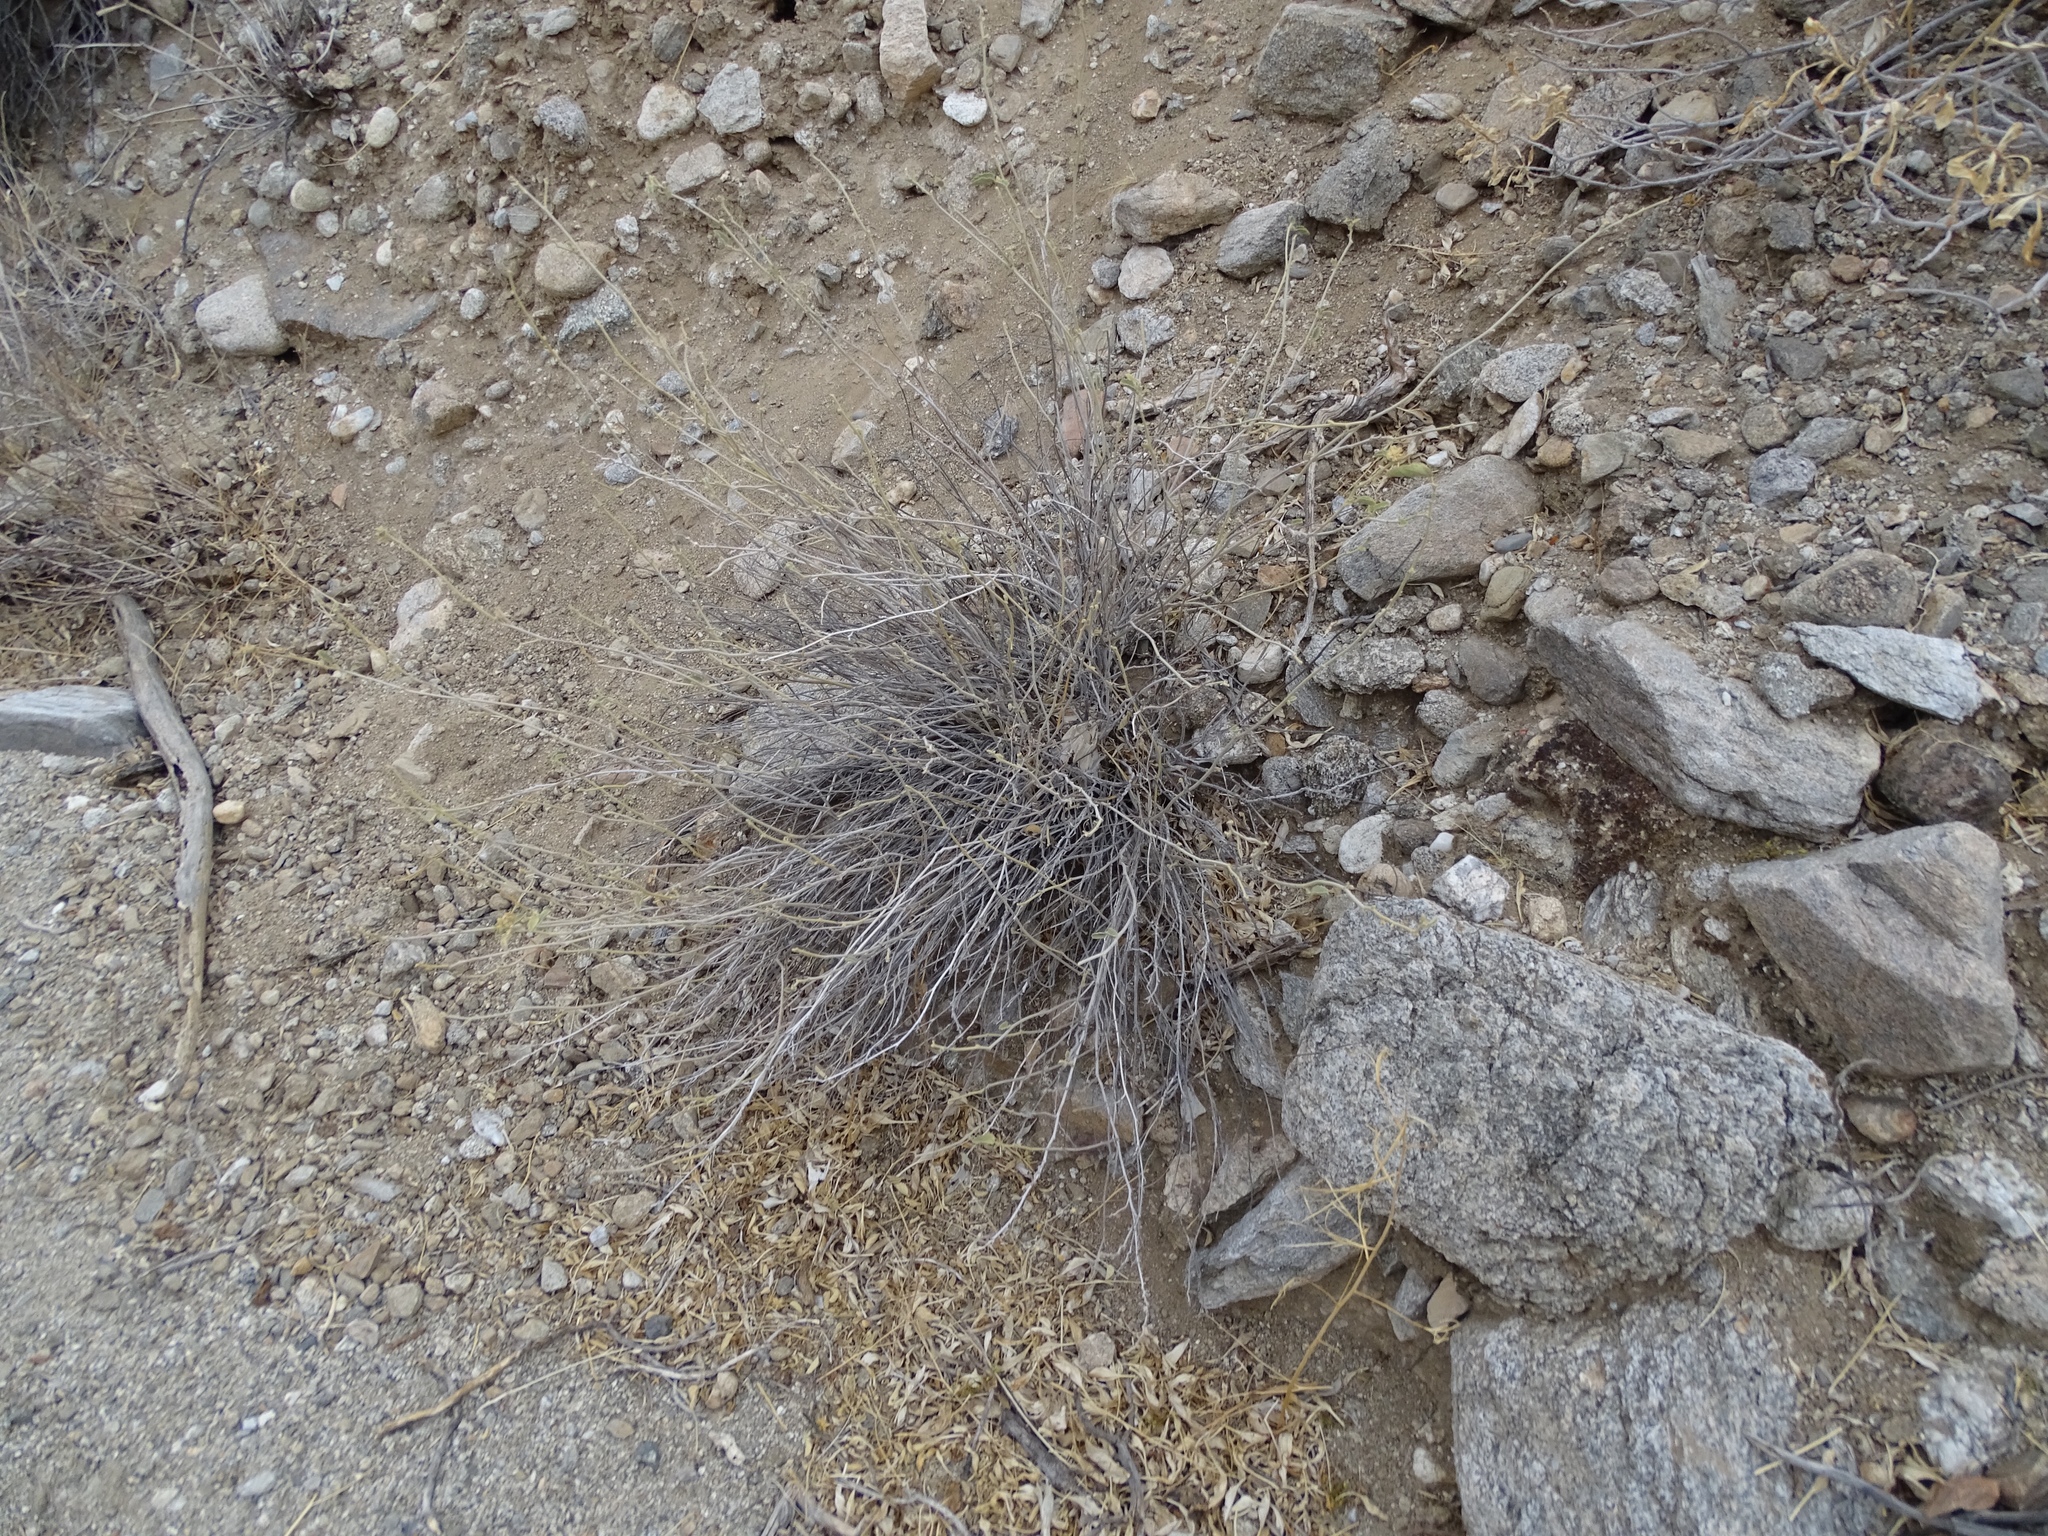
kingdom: Plantae
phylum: Tracheophyta
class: Magnoliopsida
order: Malvales
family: Malvaceae
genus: Hibiscus
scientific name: Hibiscus denudatus
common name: Paleface
